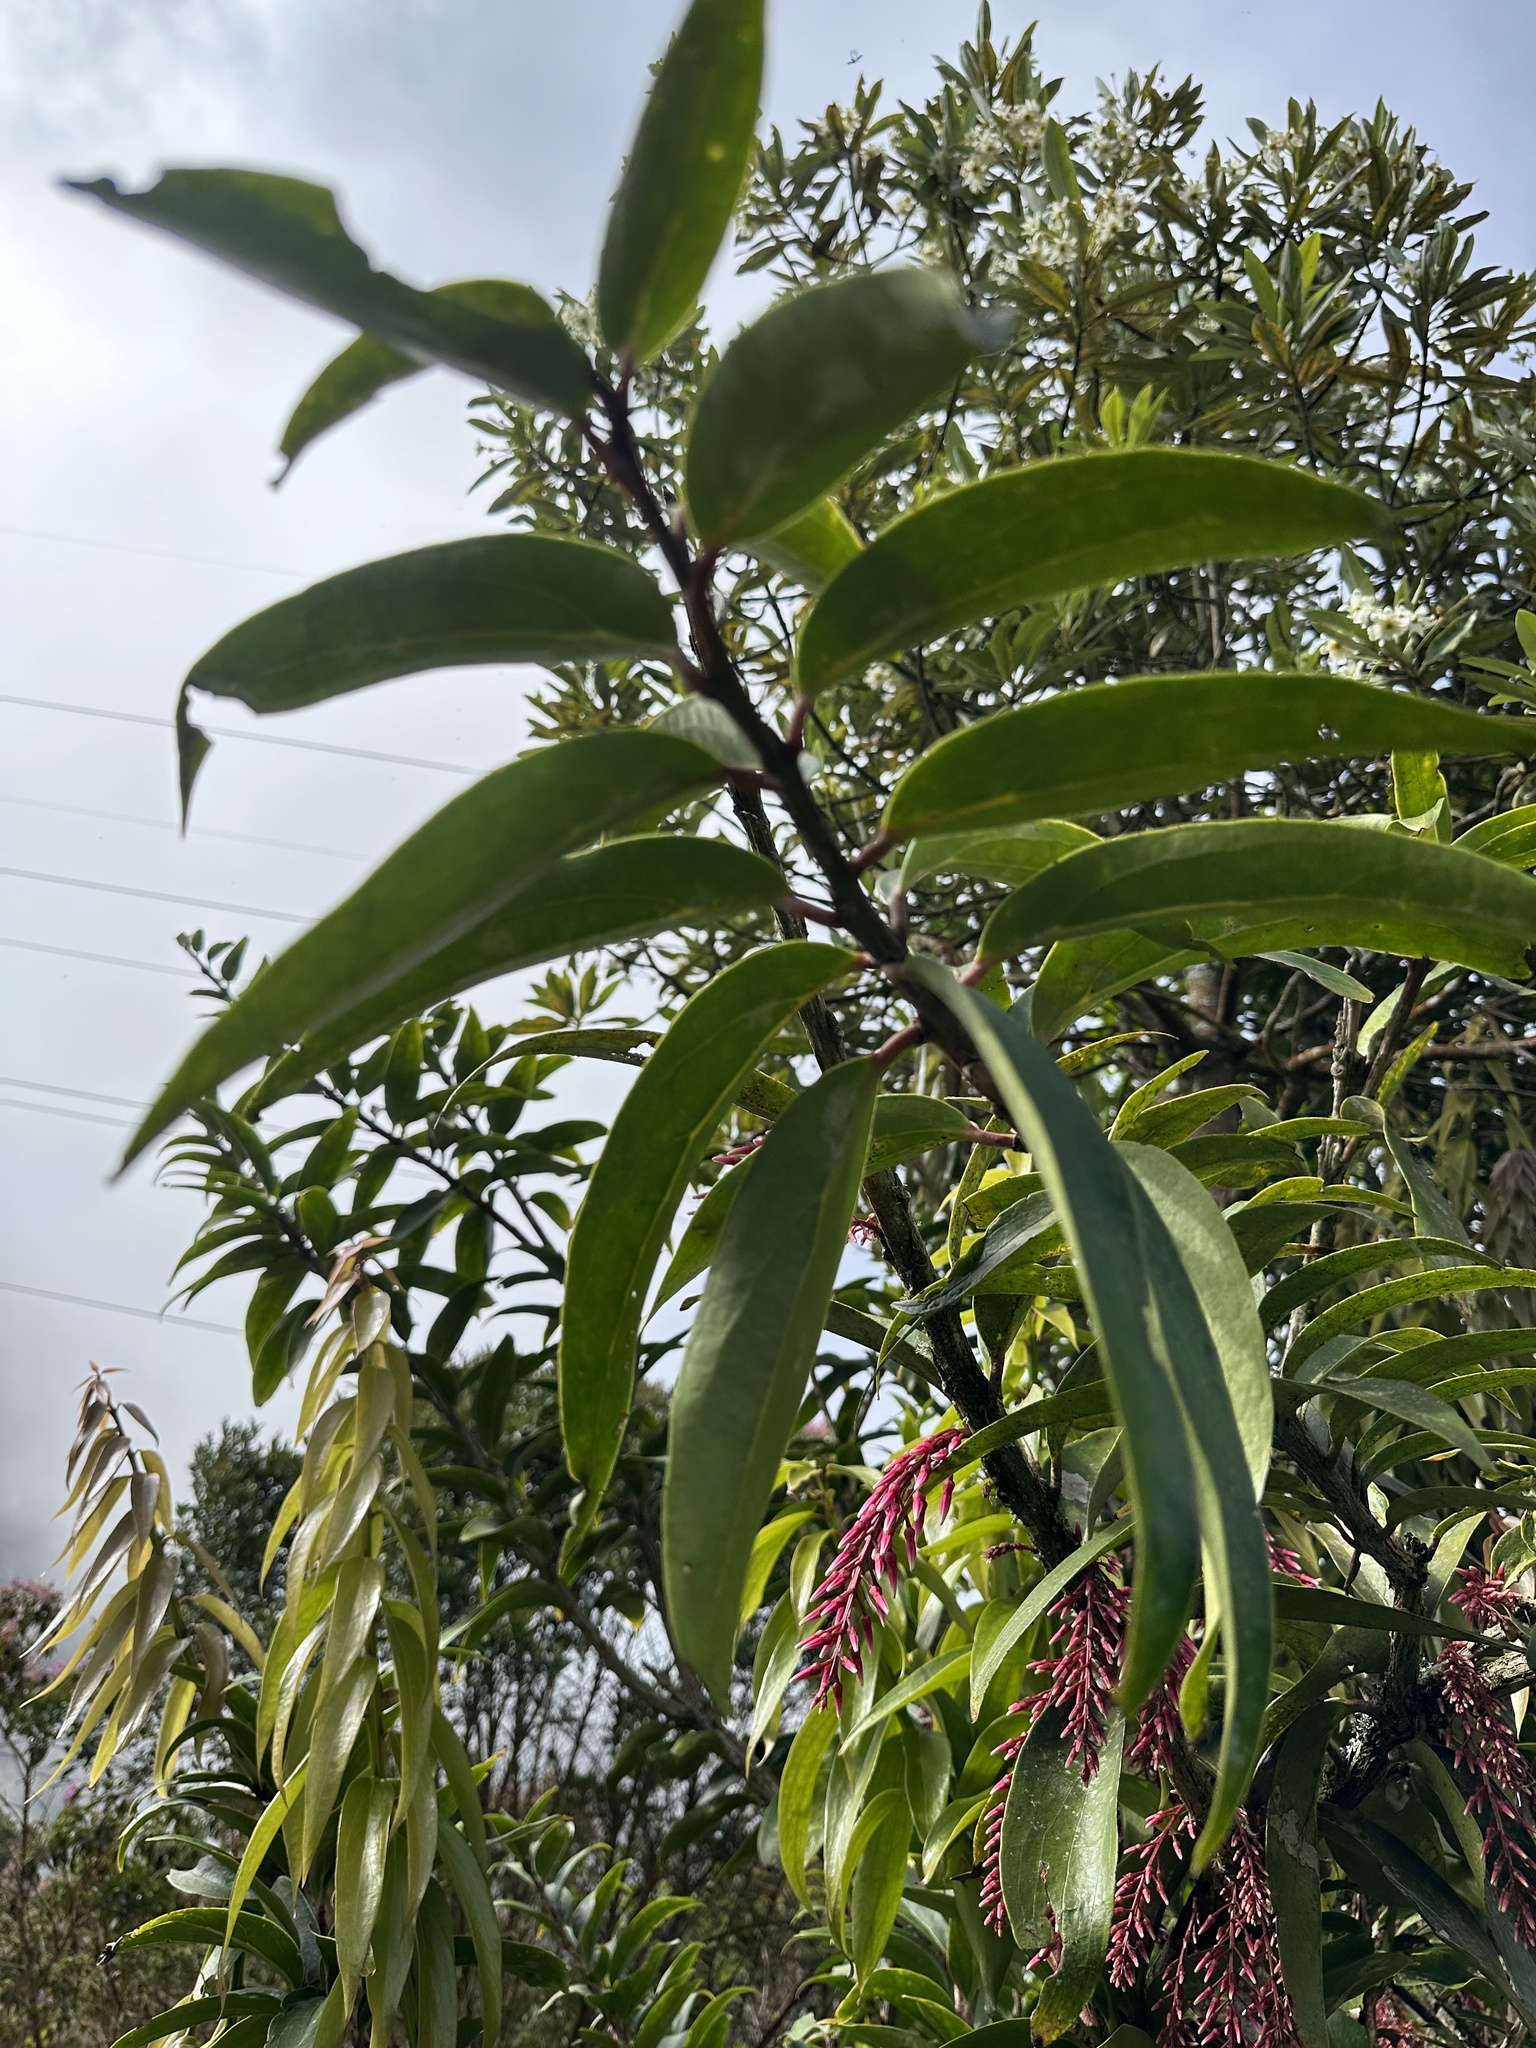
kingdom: Plantae
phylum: Tracheophyta
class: Magnoliopsida
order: Ericales
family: Ericaceae
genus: Thibaudia
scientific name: Thibaudia floribunda
